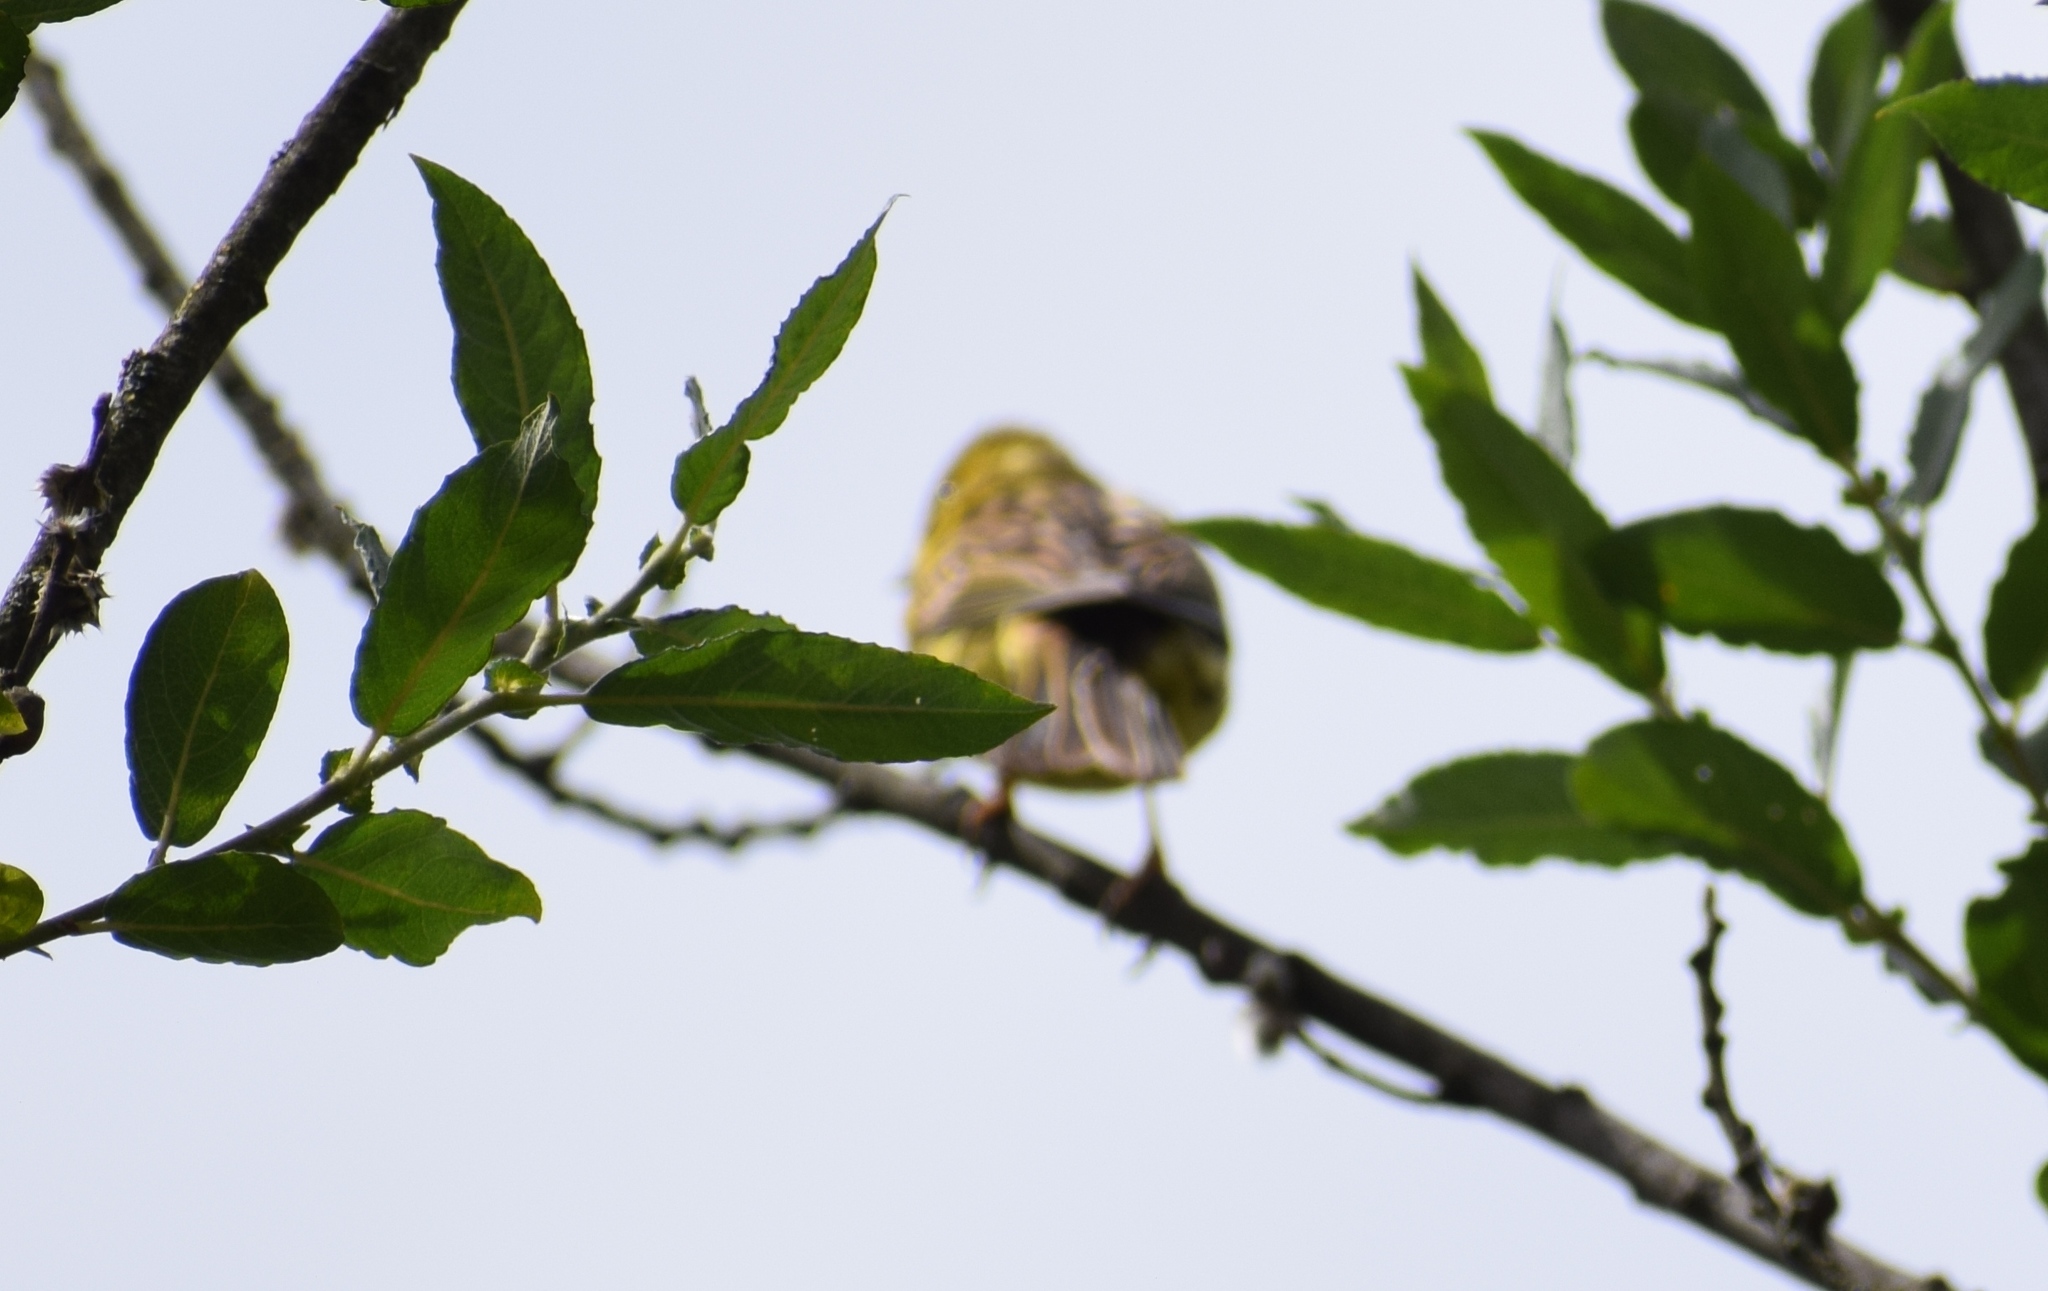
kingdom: Animalia
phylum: Chordata
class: Aves
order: Passeriformes
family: Emberizidae
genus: Emberiza
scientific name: Emberiza citrinella
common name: Yellowhammer
